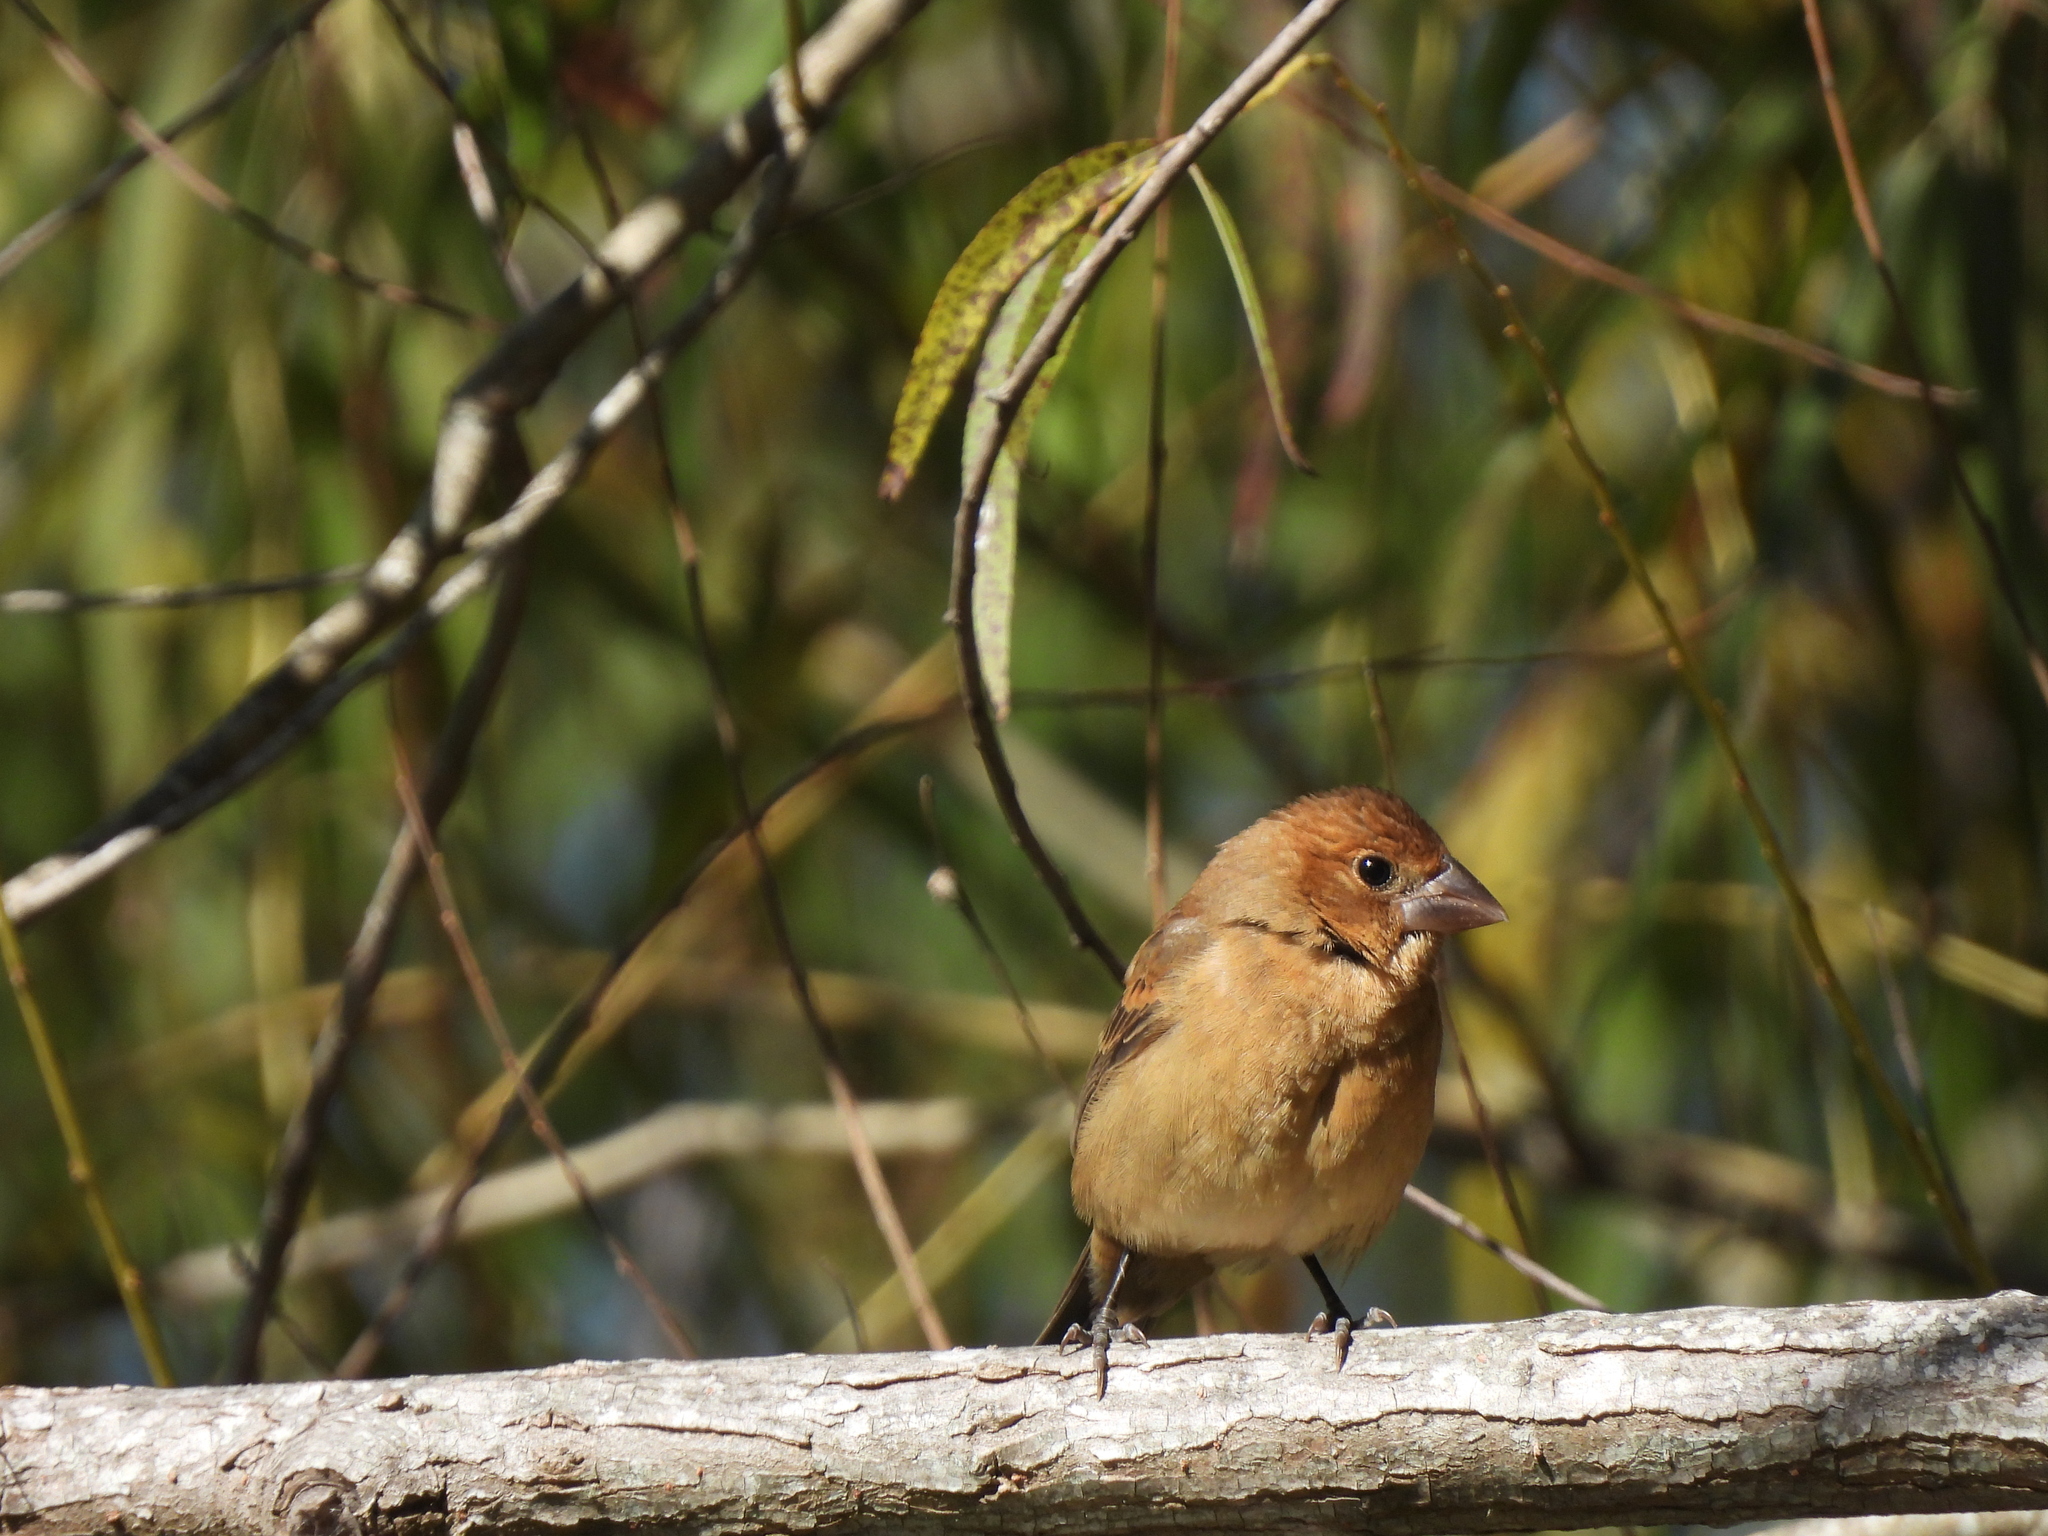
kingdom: Animalia
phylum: Chordata
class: Aves
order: Passeriformes
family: Cardinalidae
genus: Passerina
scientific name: Passerina caerulea
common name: Blue grosbeak
